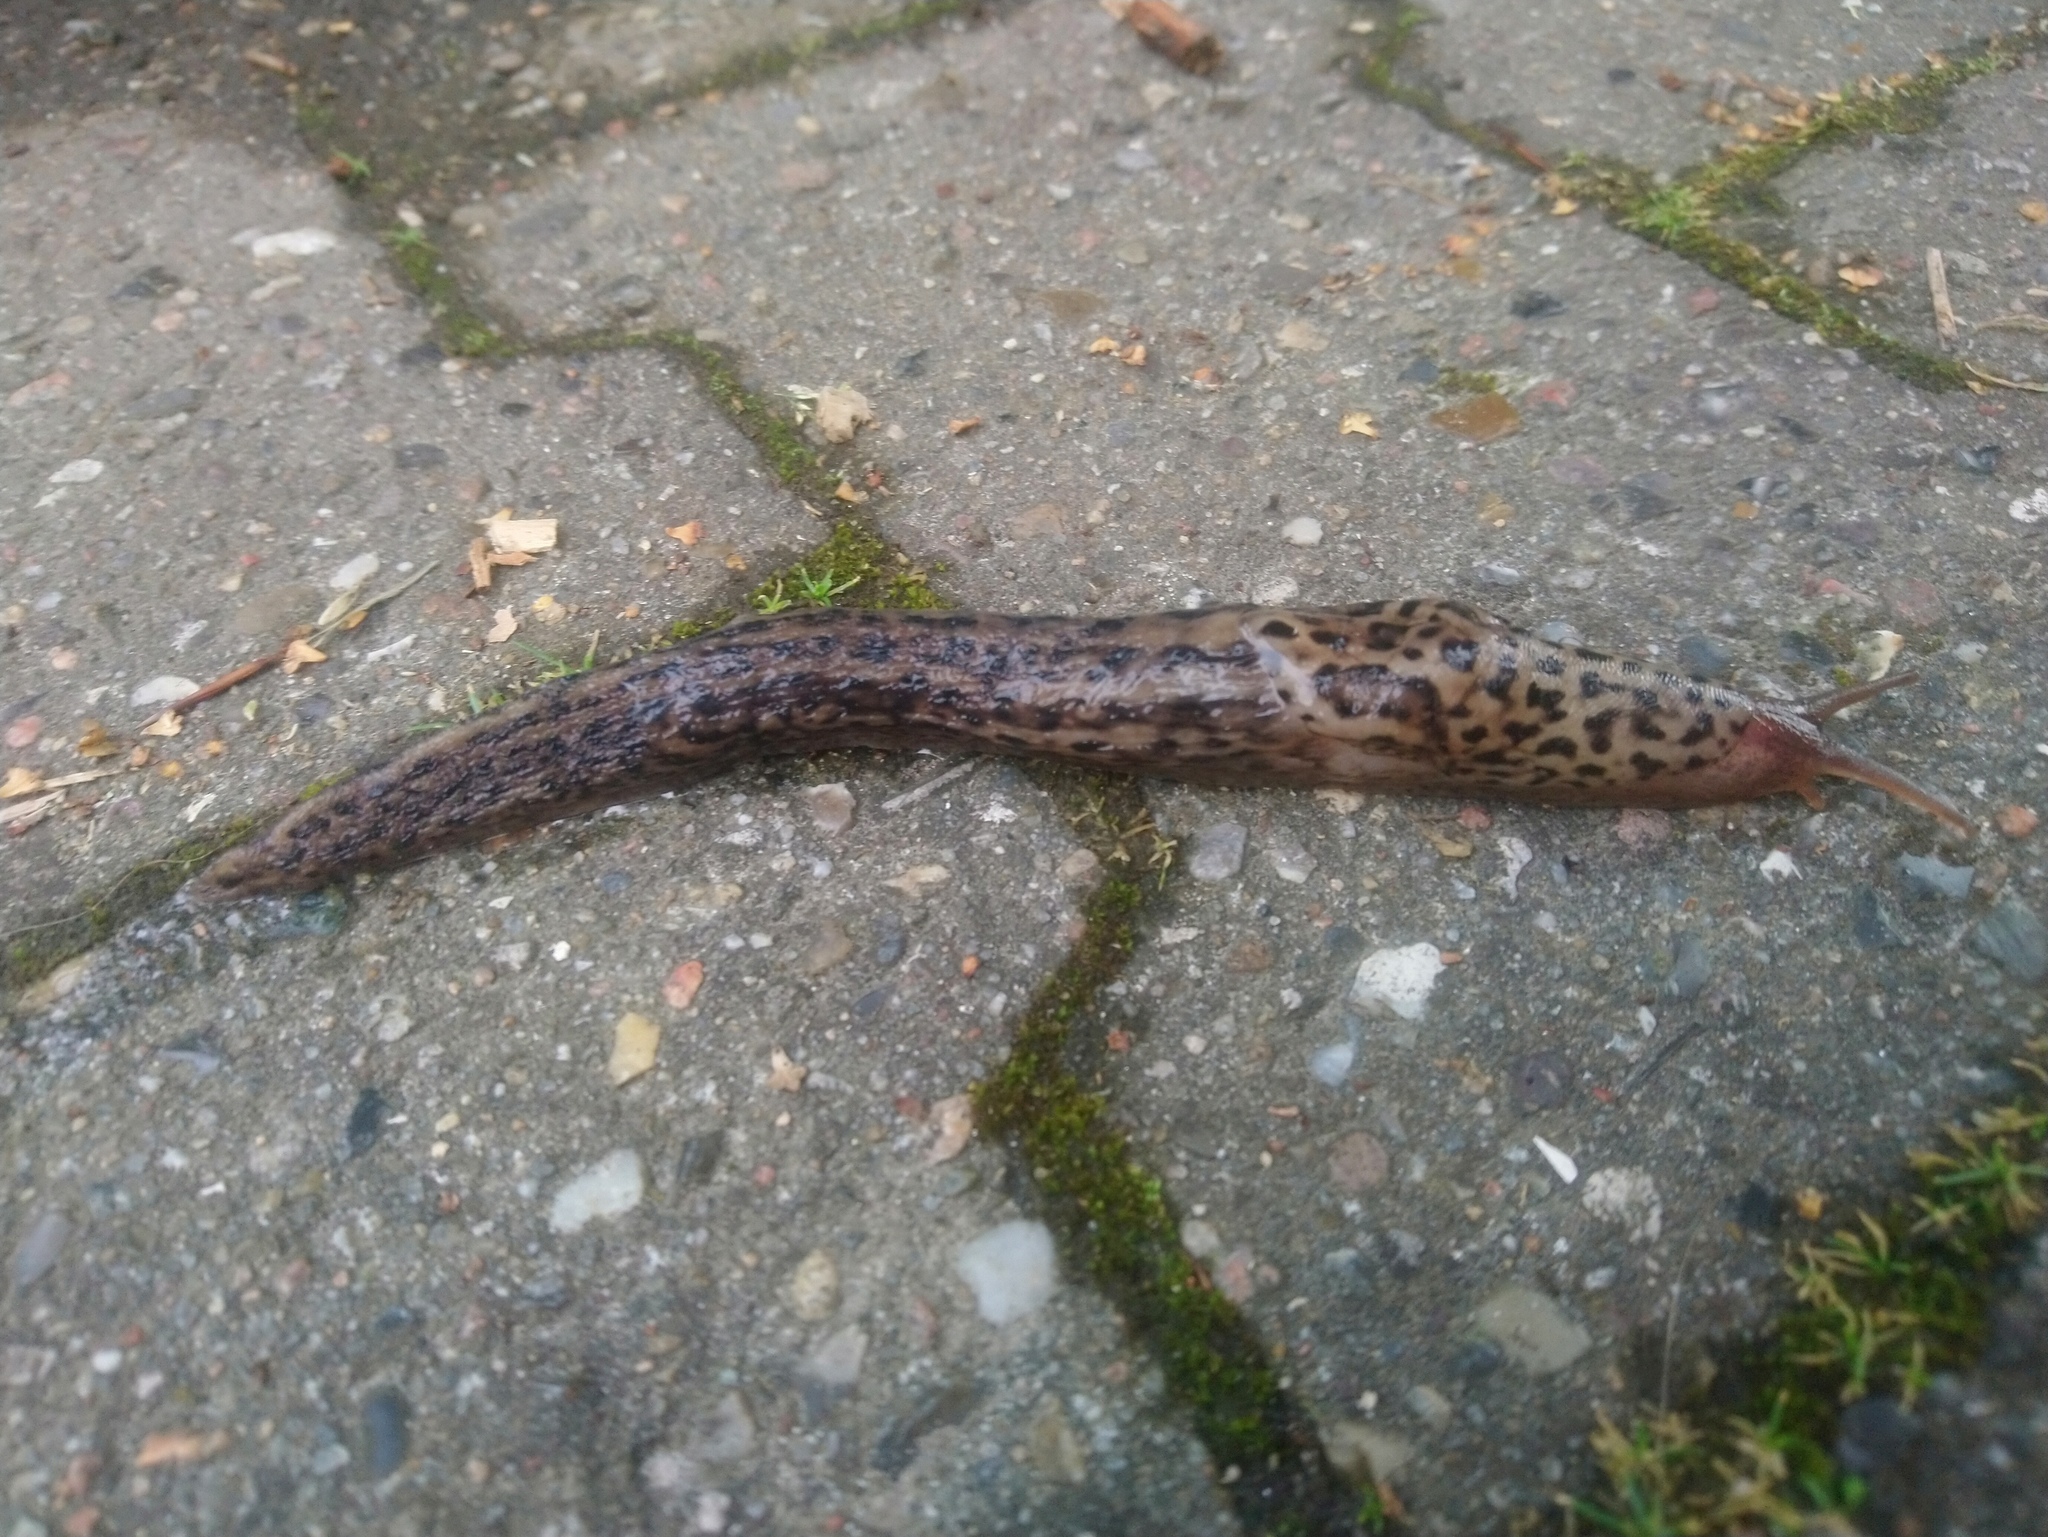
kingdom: Animalia
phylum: Mollusca
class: Gastropoda
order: Stylommatophora
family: Limacidae
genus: Limax
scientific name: Limax maximus
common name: Great grey slug
